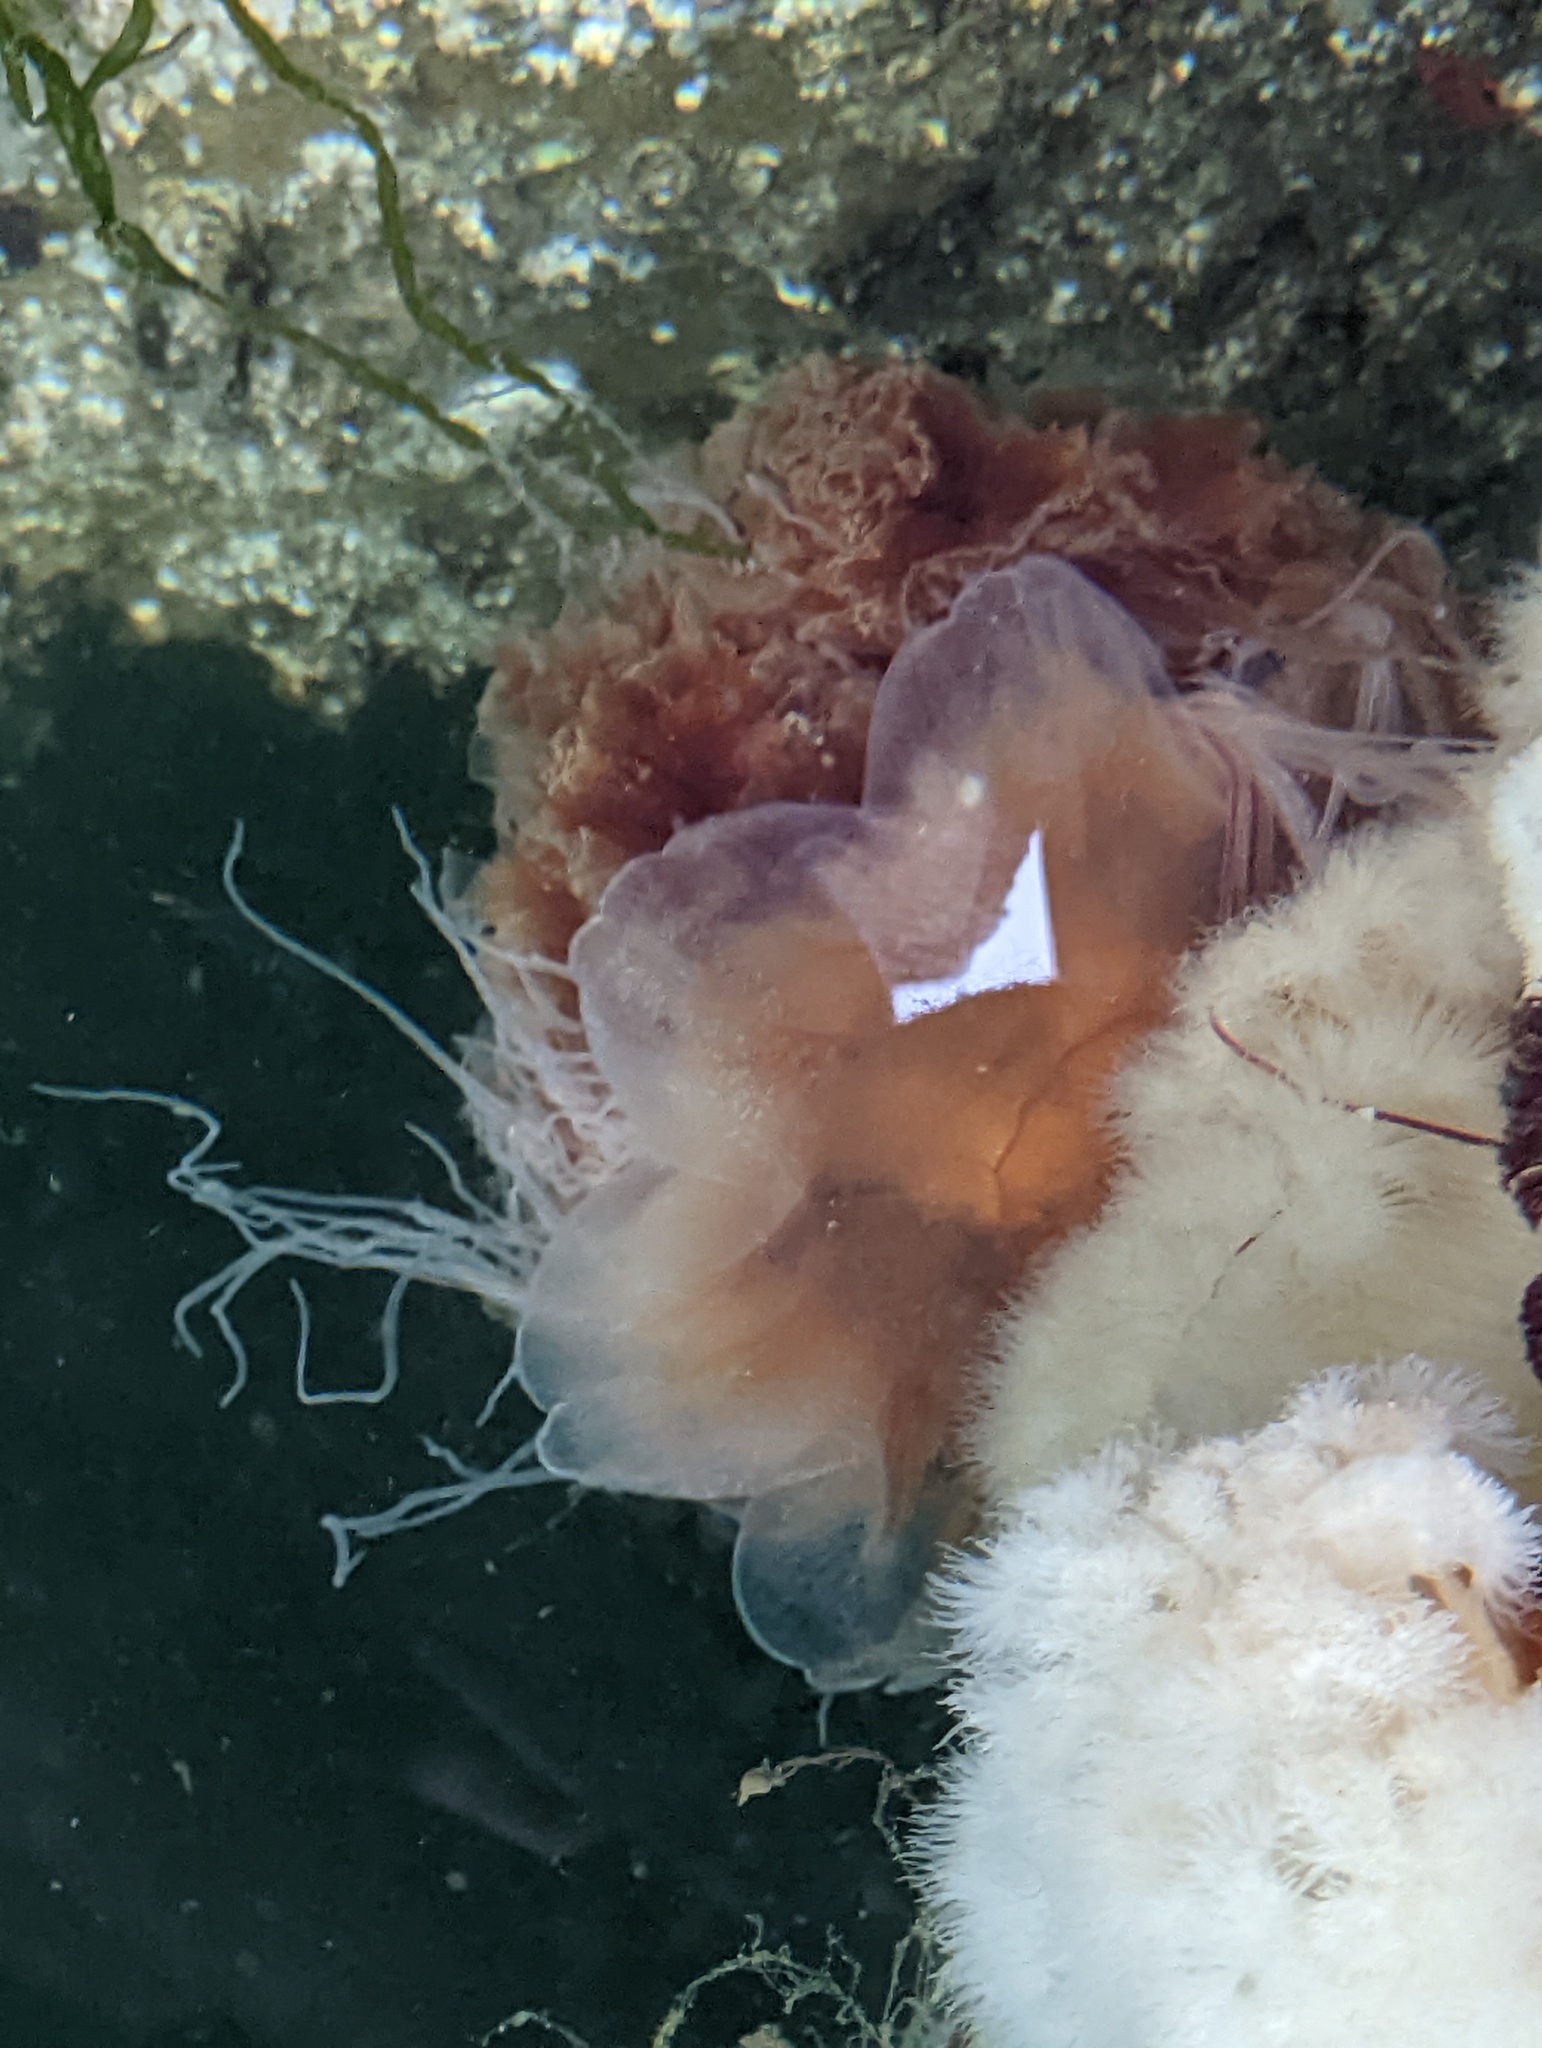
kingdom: Animalia
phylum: Cnidaria
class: Scyphozoa
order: Semaeostomeae
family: Cyaneidae
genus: Cyanea
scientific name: Cyanea ferruginea
